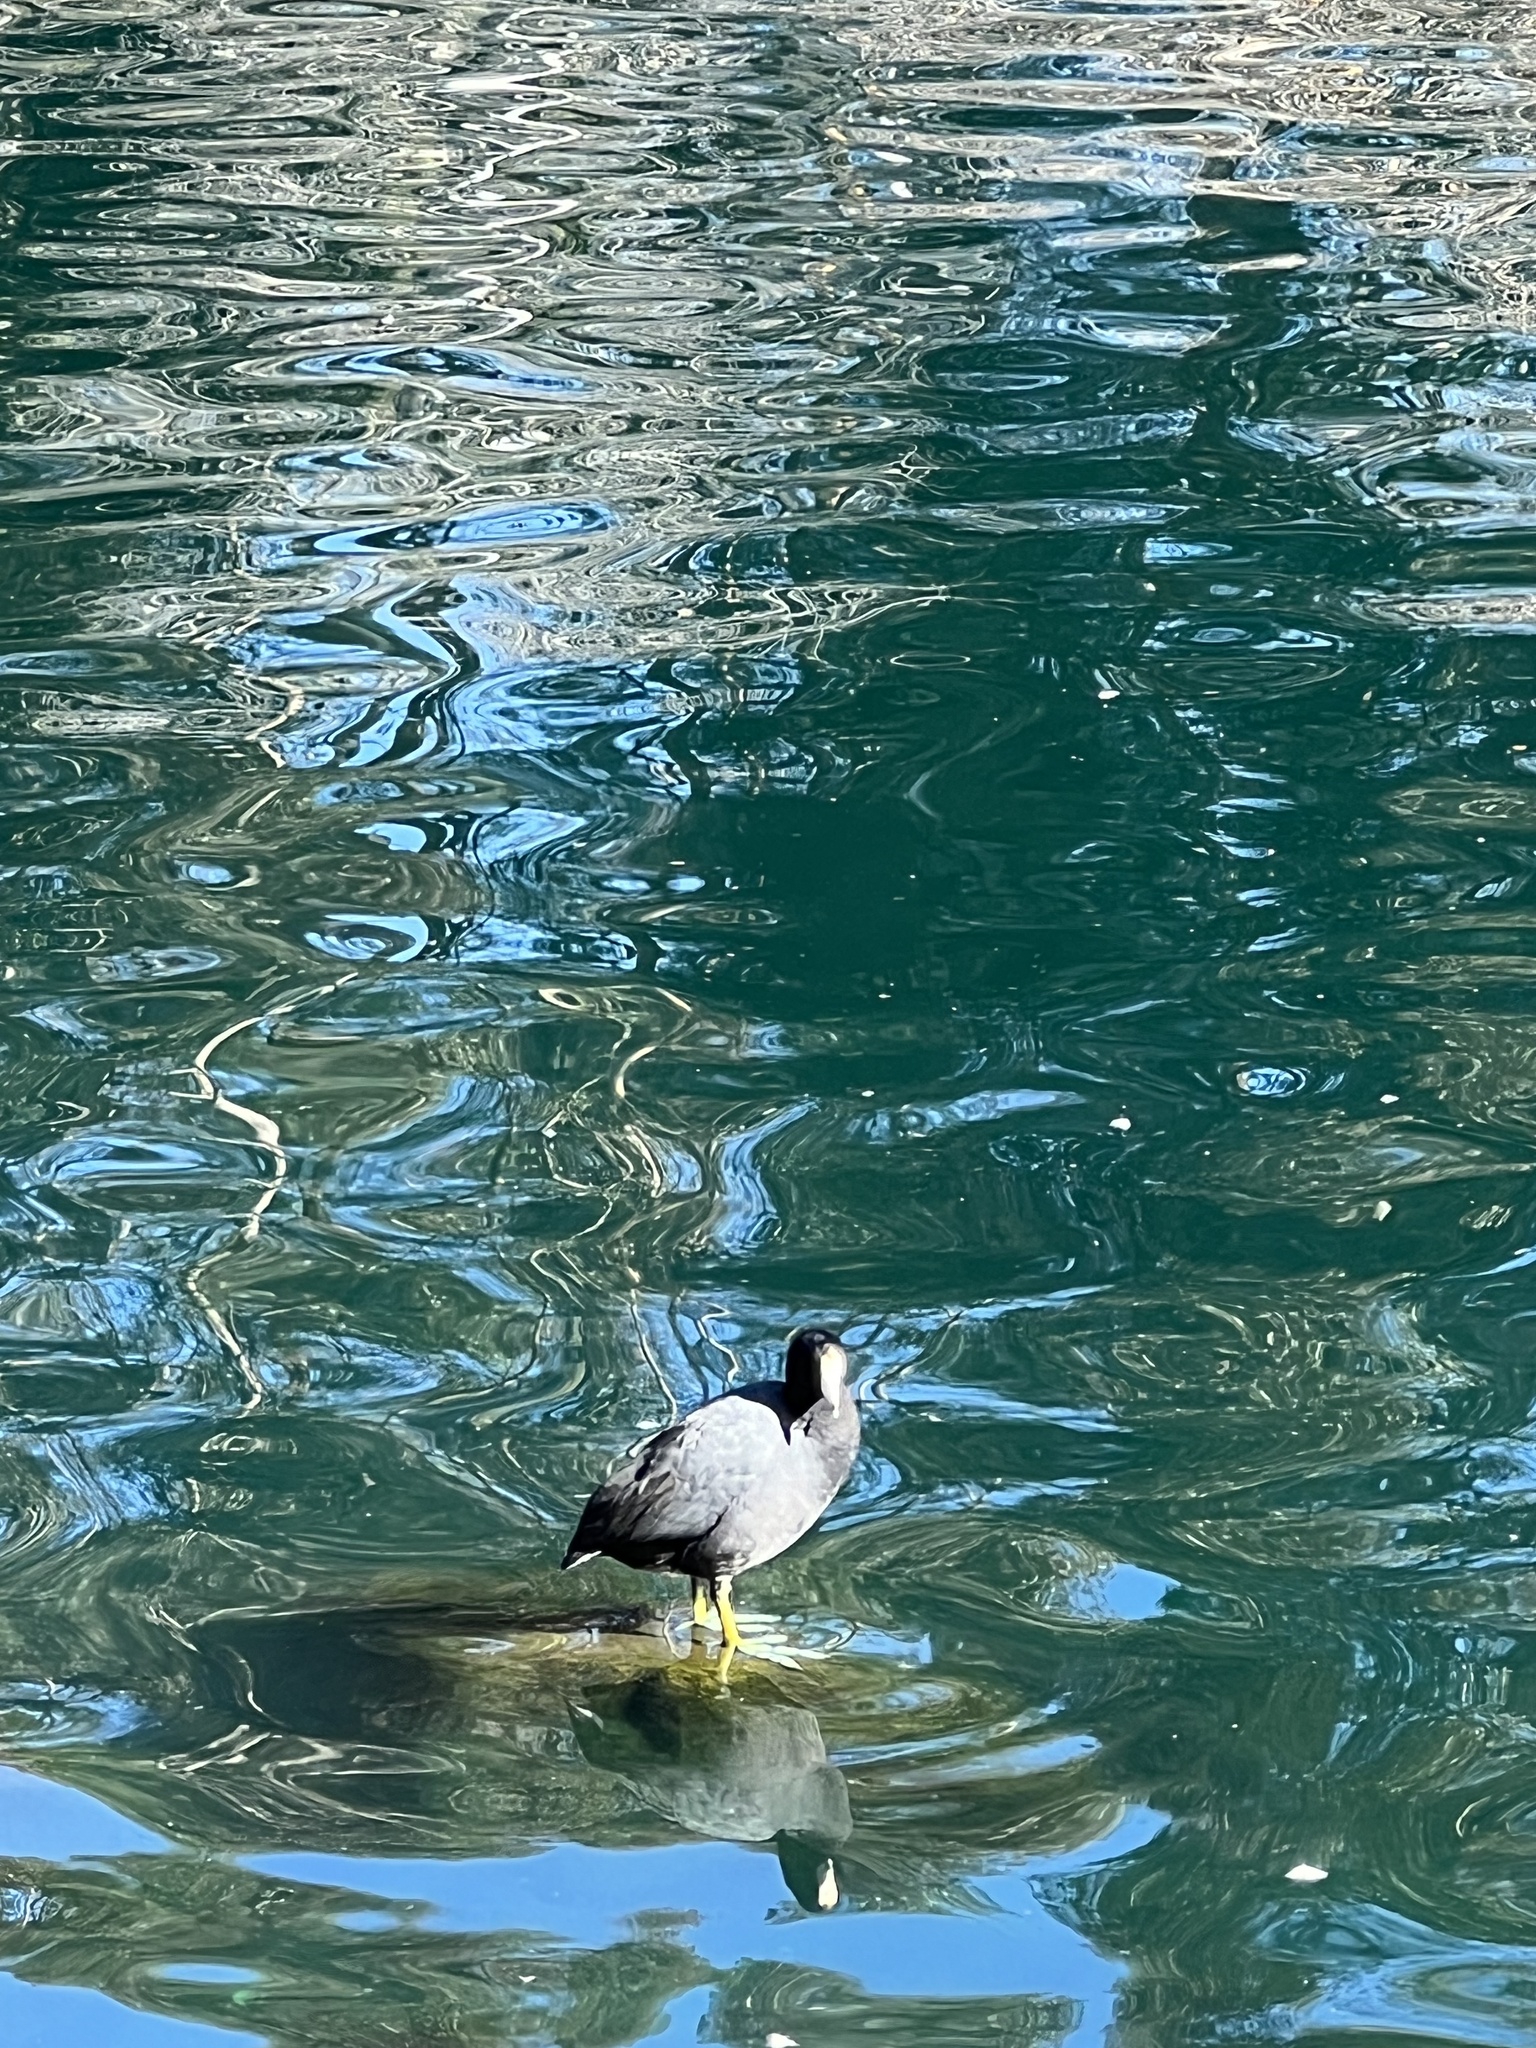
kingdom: Animalia
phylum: Chordata
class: Aves
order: Gruiformes
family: Rallidae
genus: Fulica
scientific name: Fulica americana
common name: American coot
